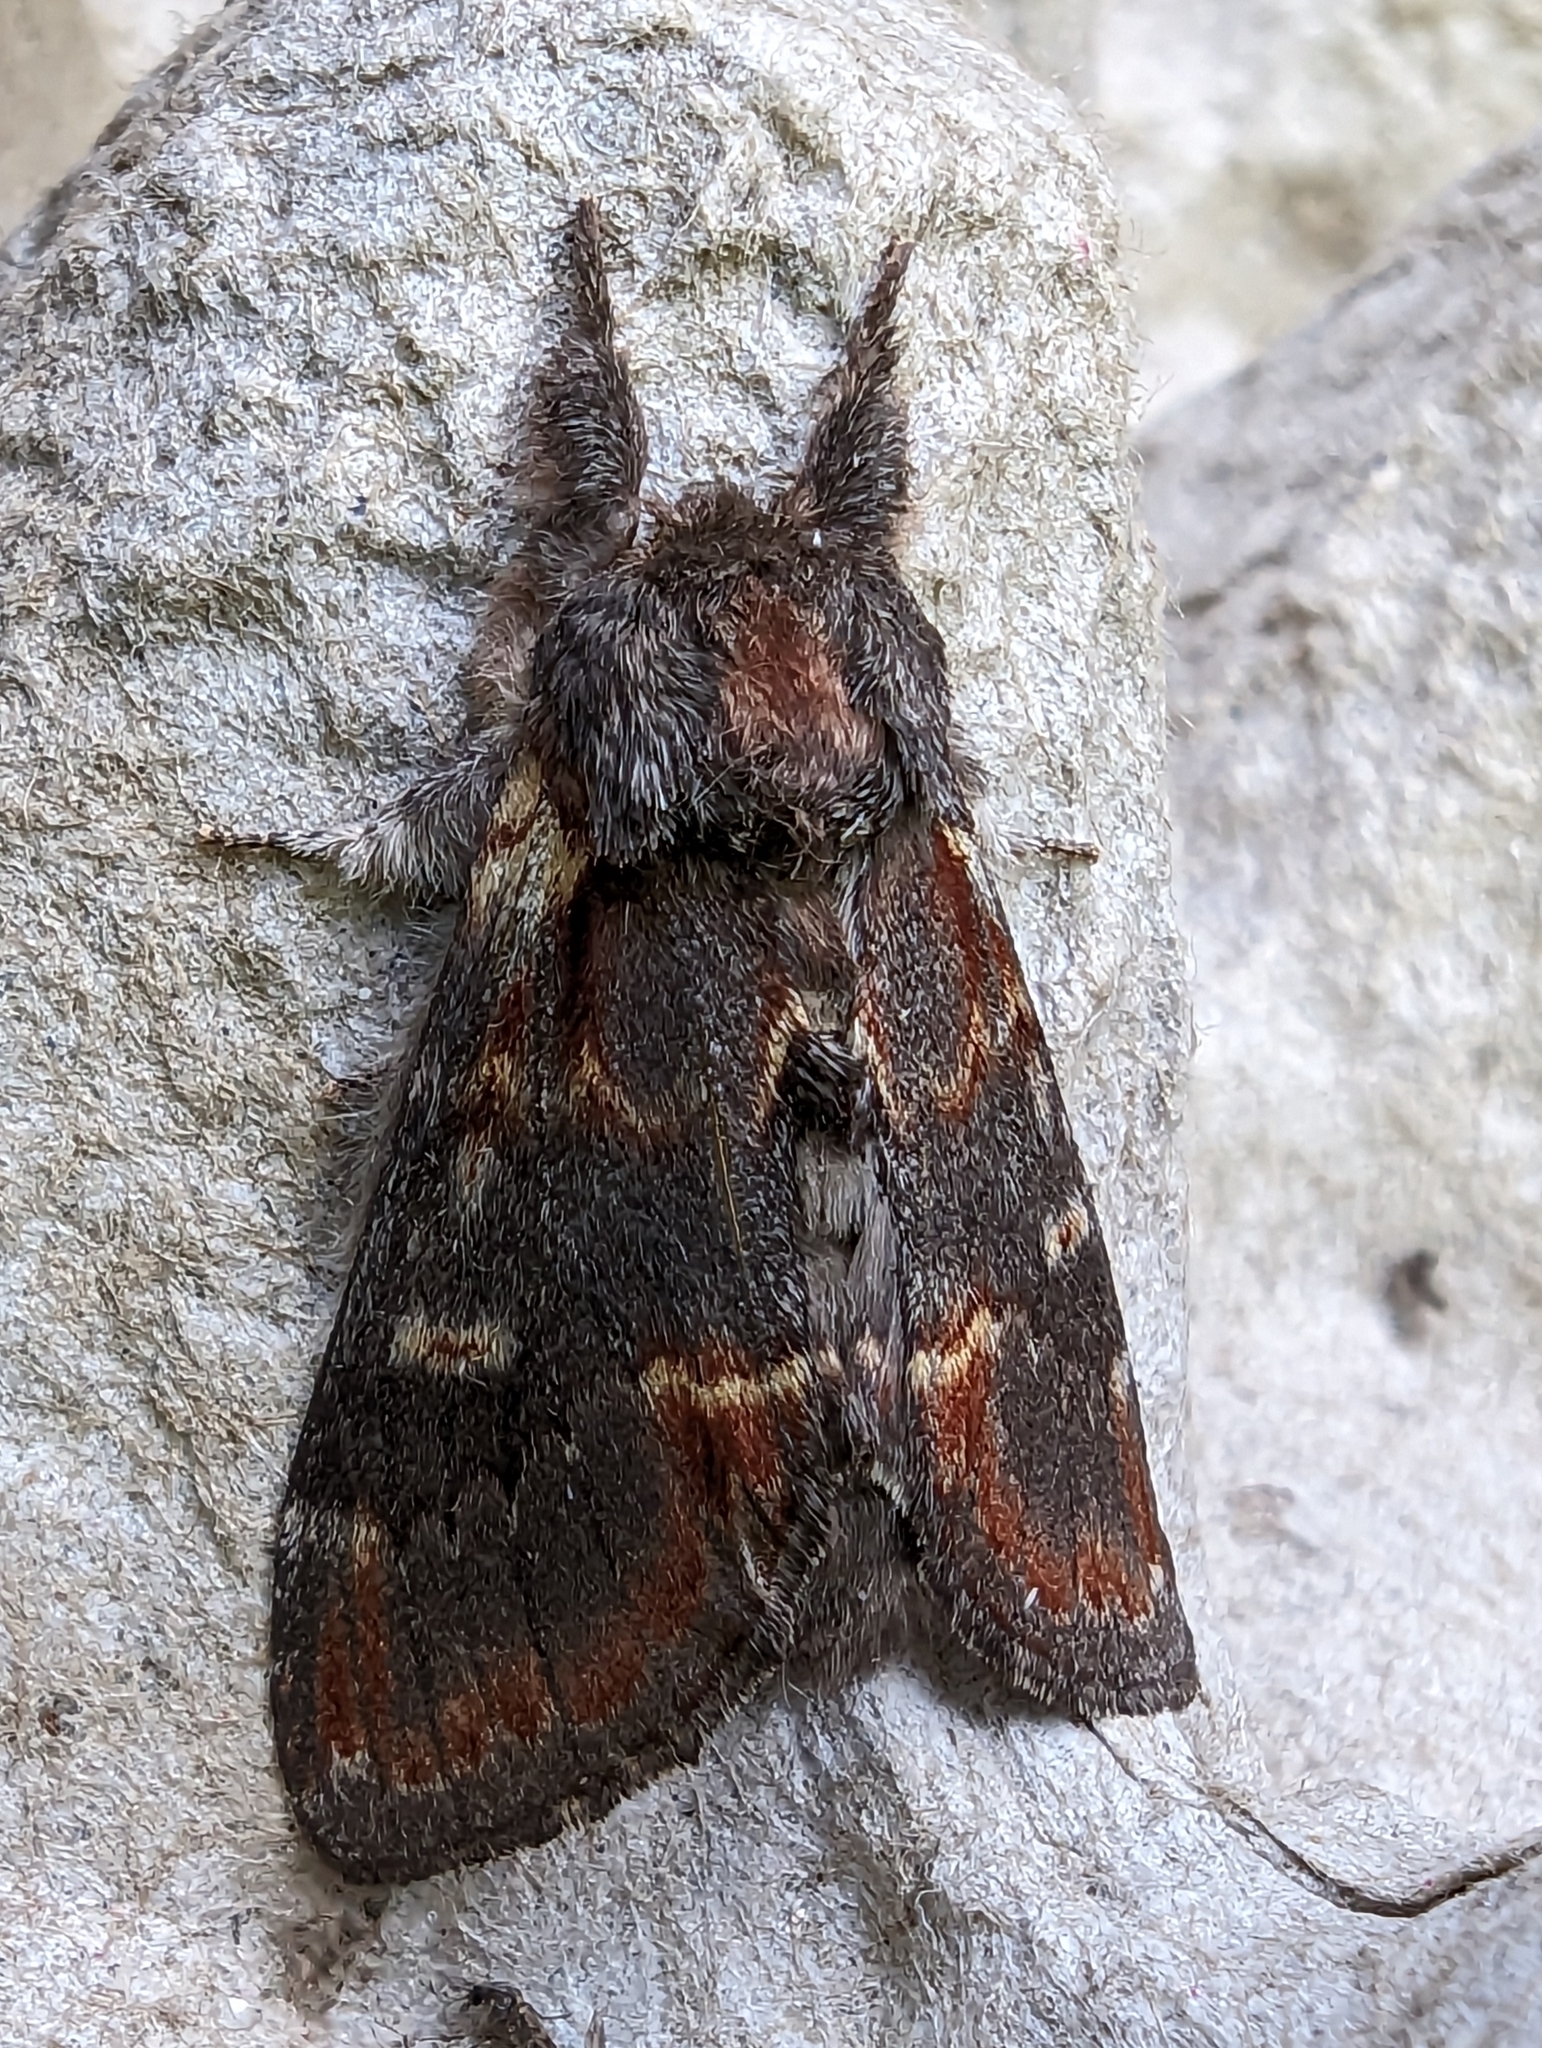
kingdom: Animalia
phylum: Arthropoda
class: Insecta
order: Lepidoptera
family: Notodontidae
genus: Notodonta
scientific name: Notodonta dromedarius
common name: Iron prominent
